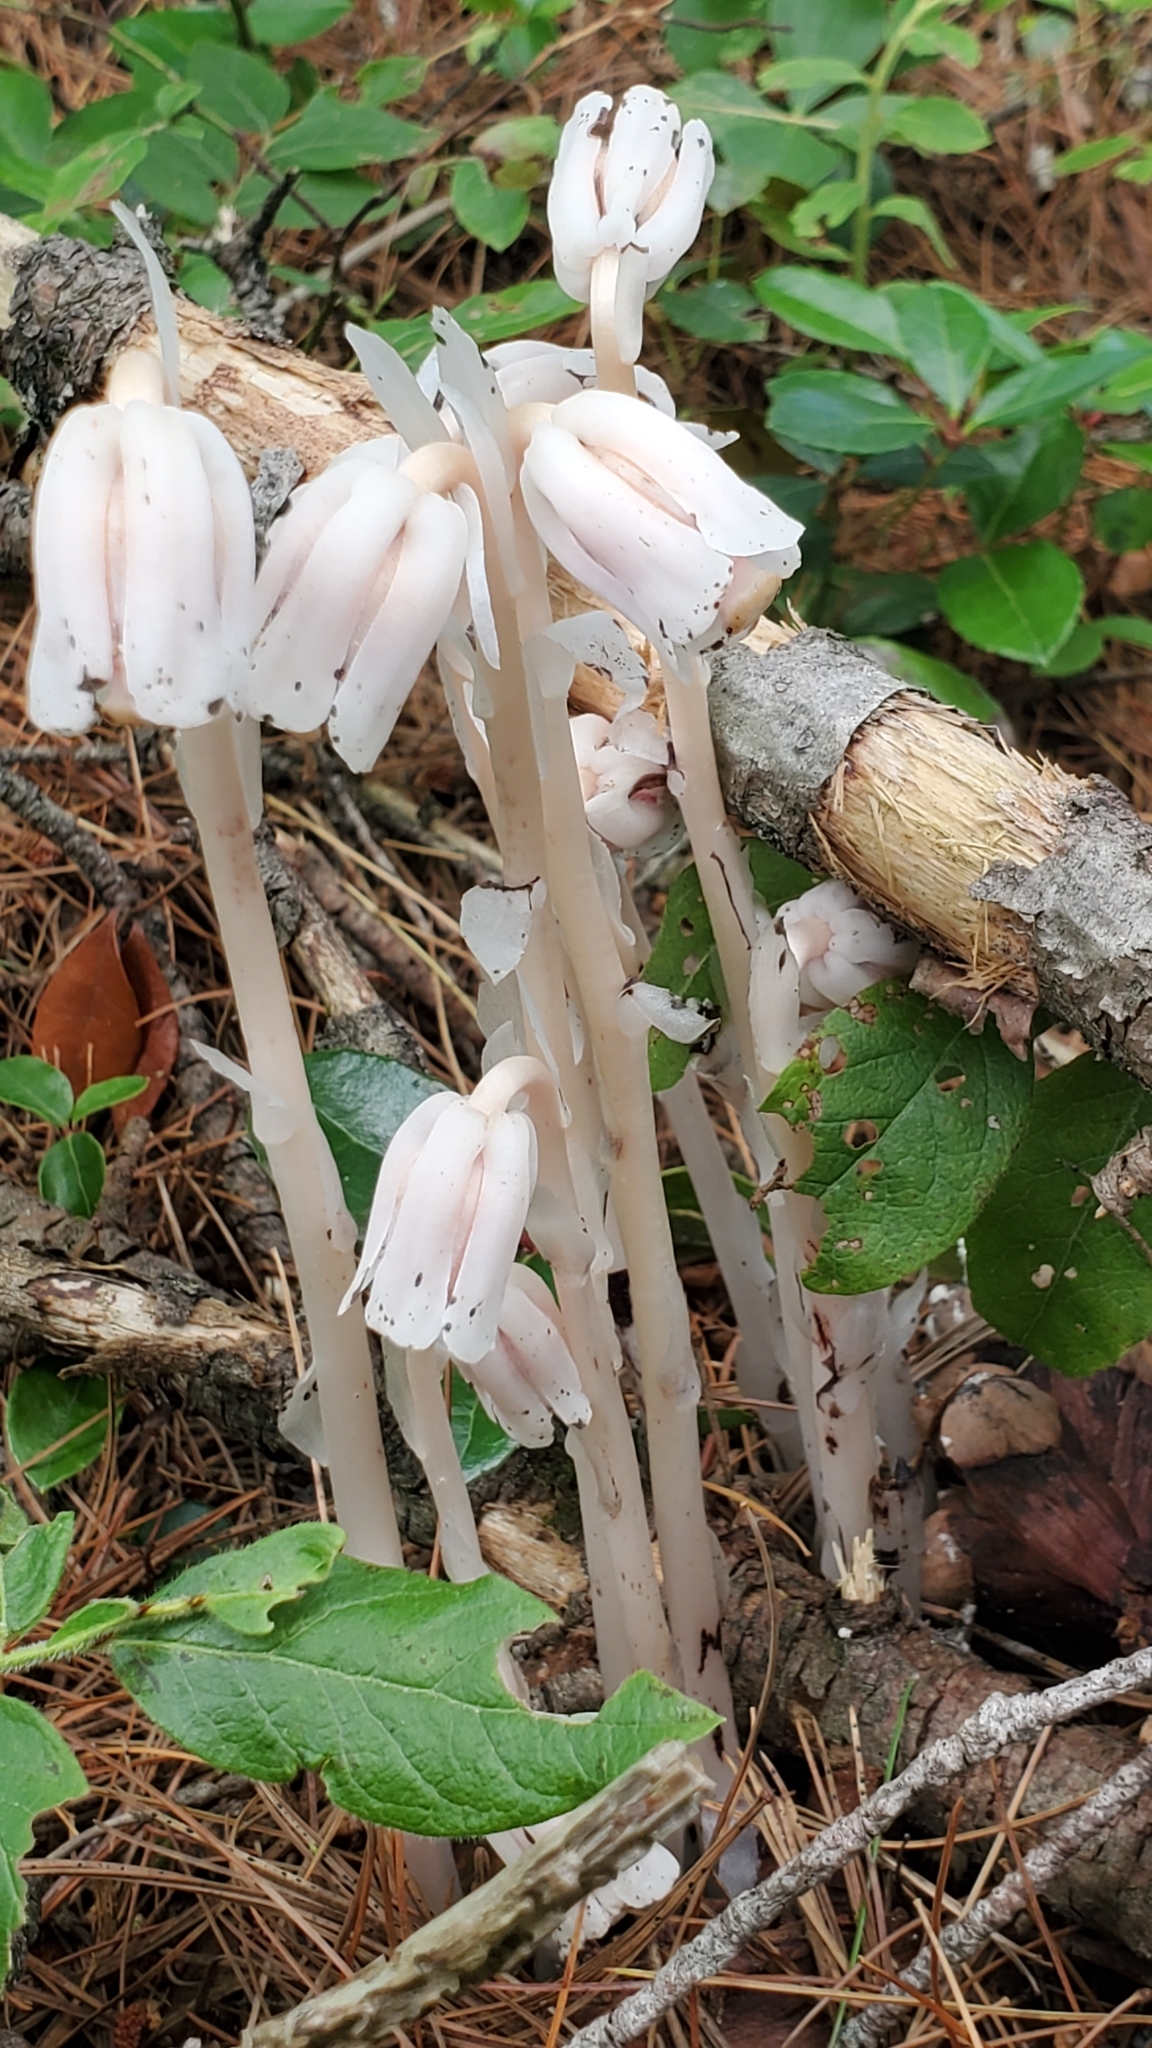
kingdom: Plantae
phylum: Tracheophyta
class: Magnoliopsida
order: Ericales
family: Ericaceae
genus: Monotropa
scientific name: Monotropa uniflora
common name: Convulsion root
